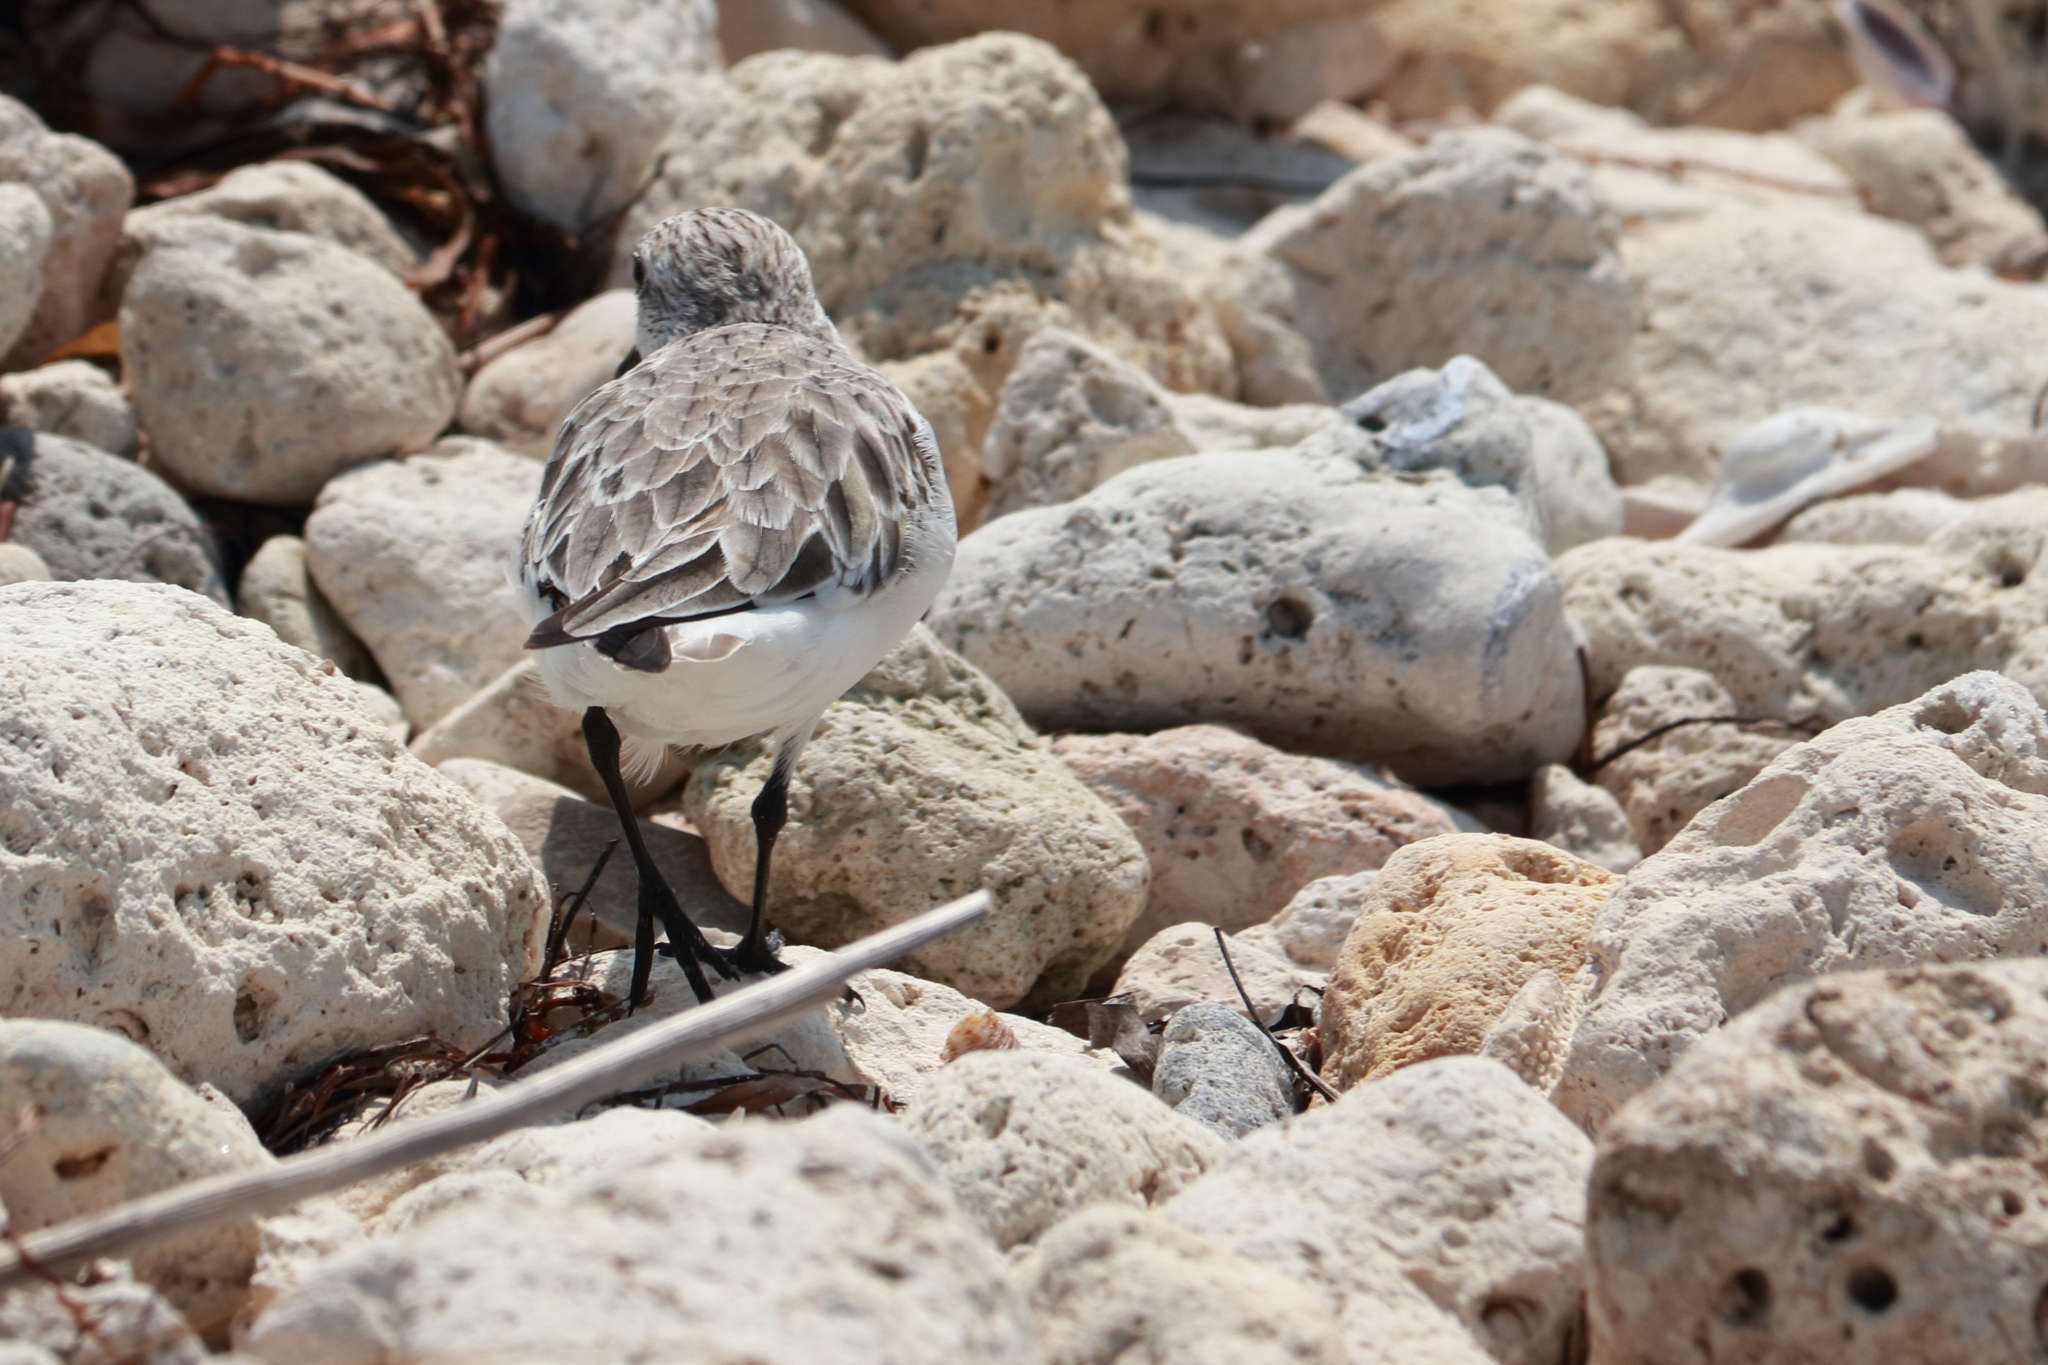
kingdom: Animalia
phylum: Chordata
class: Aves
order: Charadriiformes
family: Scolopacidae
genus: Calidris
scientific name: Calidris alba
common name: Sanderling
